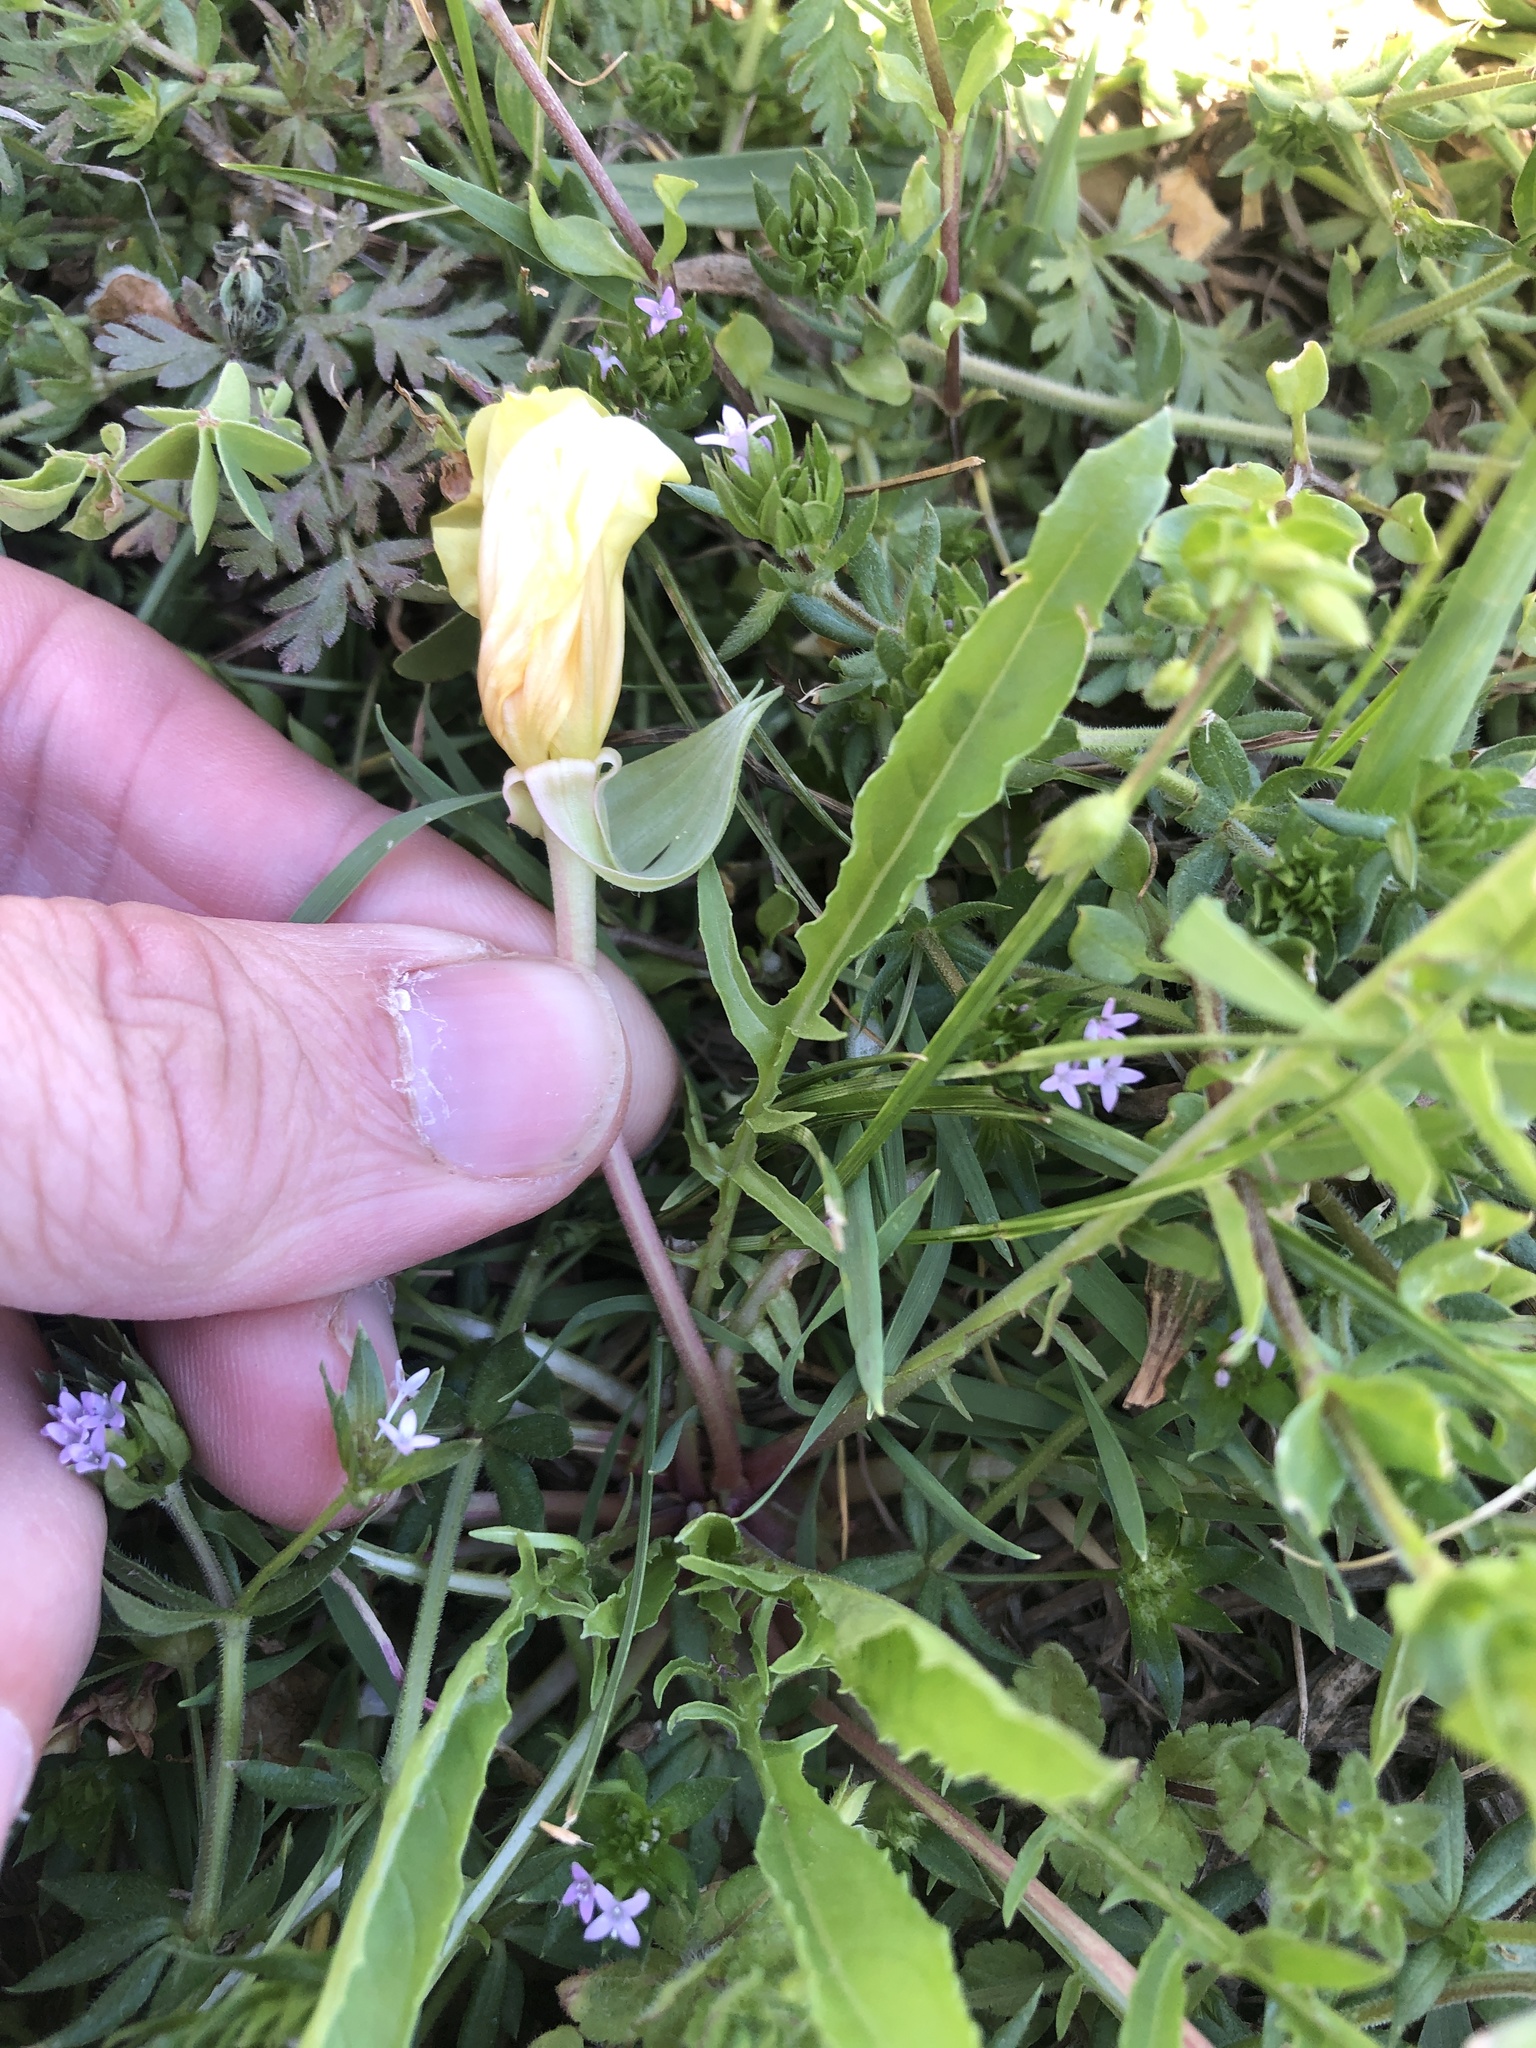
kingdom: Plantae
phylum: Tracheophyta
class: Magnoliopsida
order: Myrtales
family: Onagraceae
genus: Oenothera
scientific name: Oenothera triloba
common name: Sessile evening-primrose
